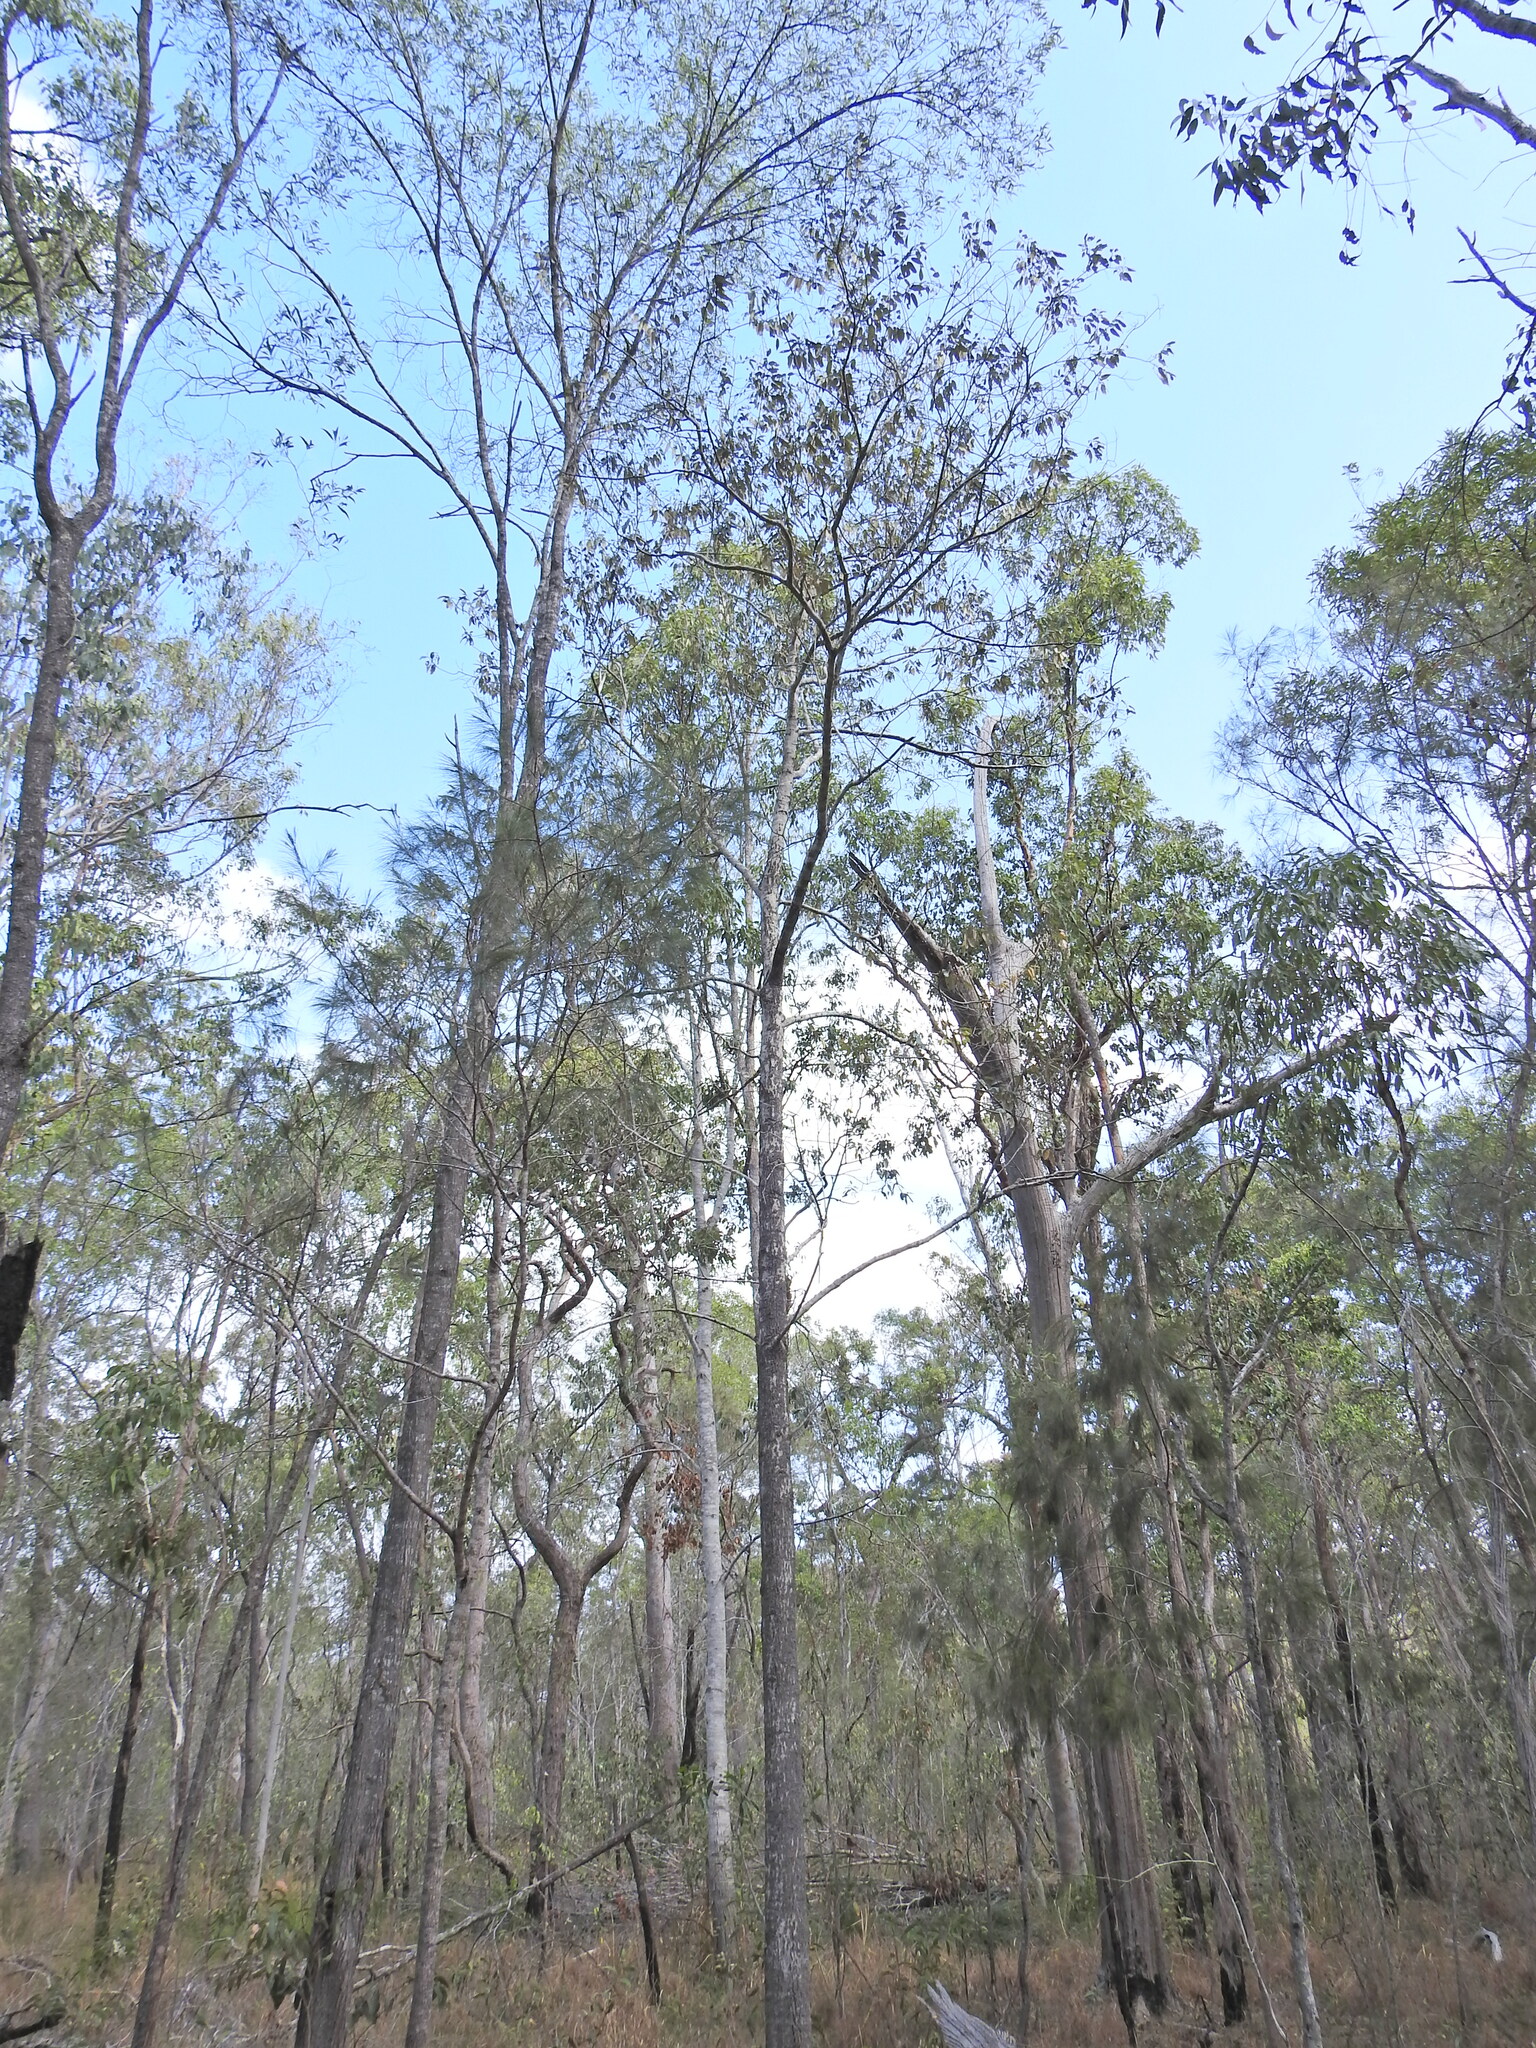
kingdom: Plantae
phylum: Tracheophyta
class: Magnoliopsida
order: Rosales
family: Rhamnaceae
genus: Alphitonia
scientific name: Alphitonia excelsa
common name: Red ash
